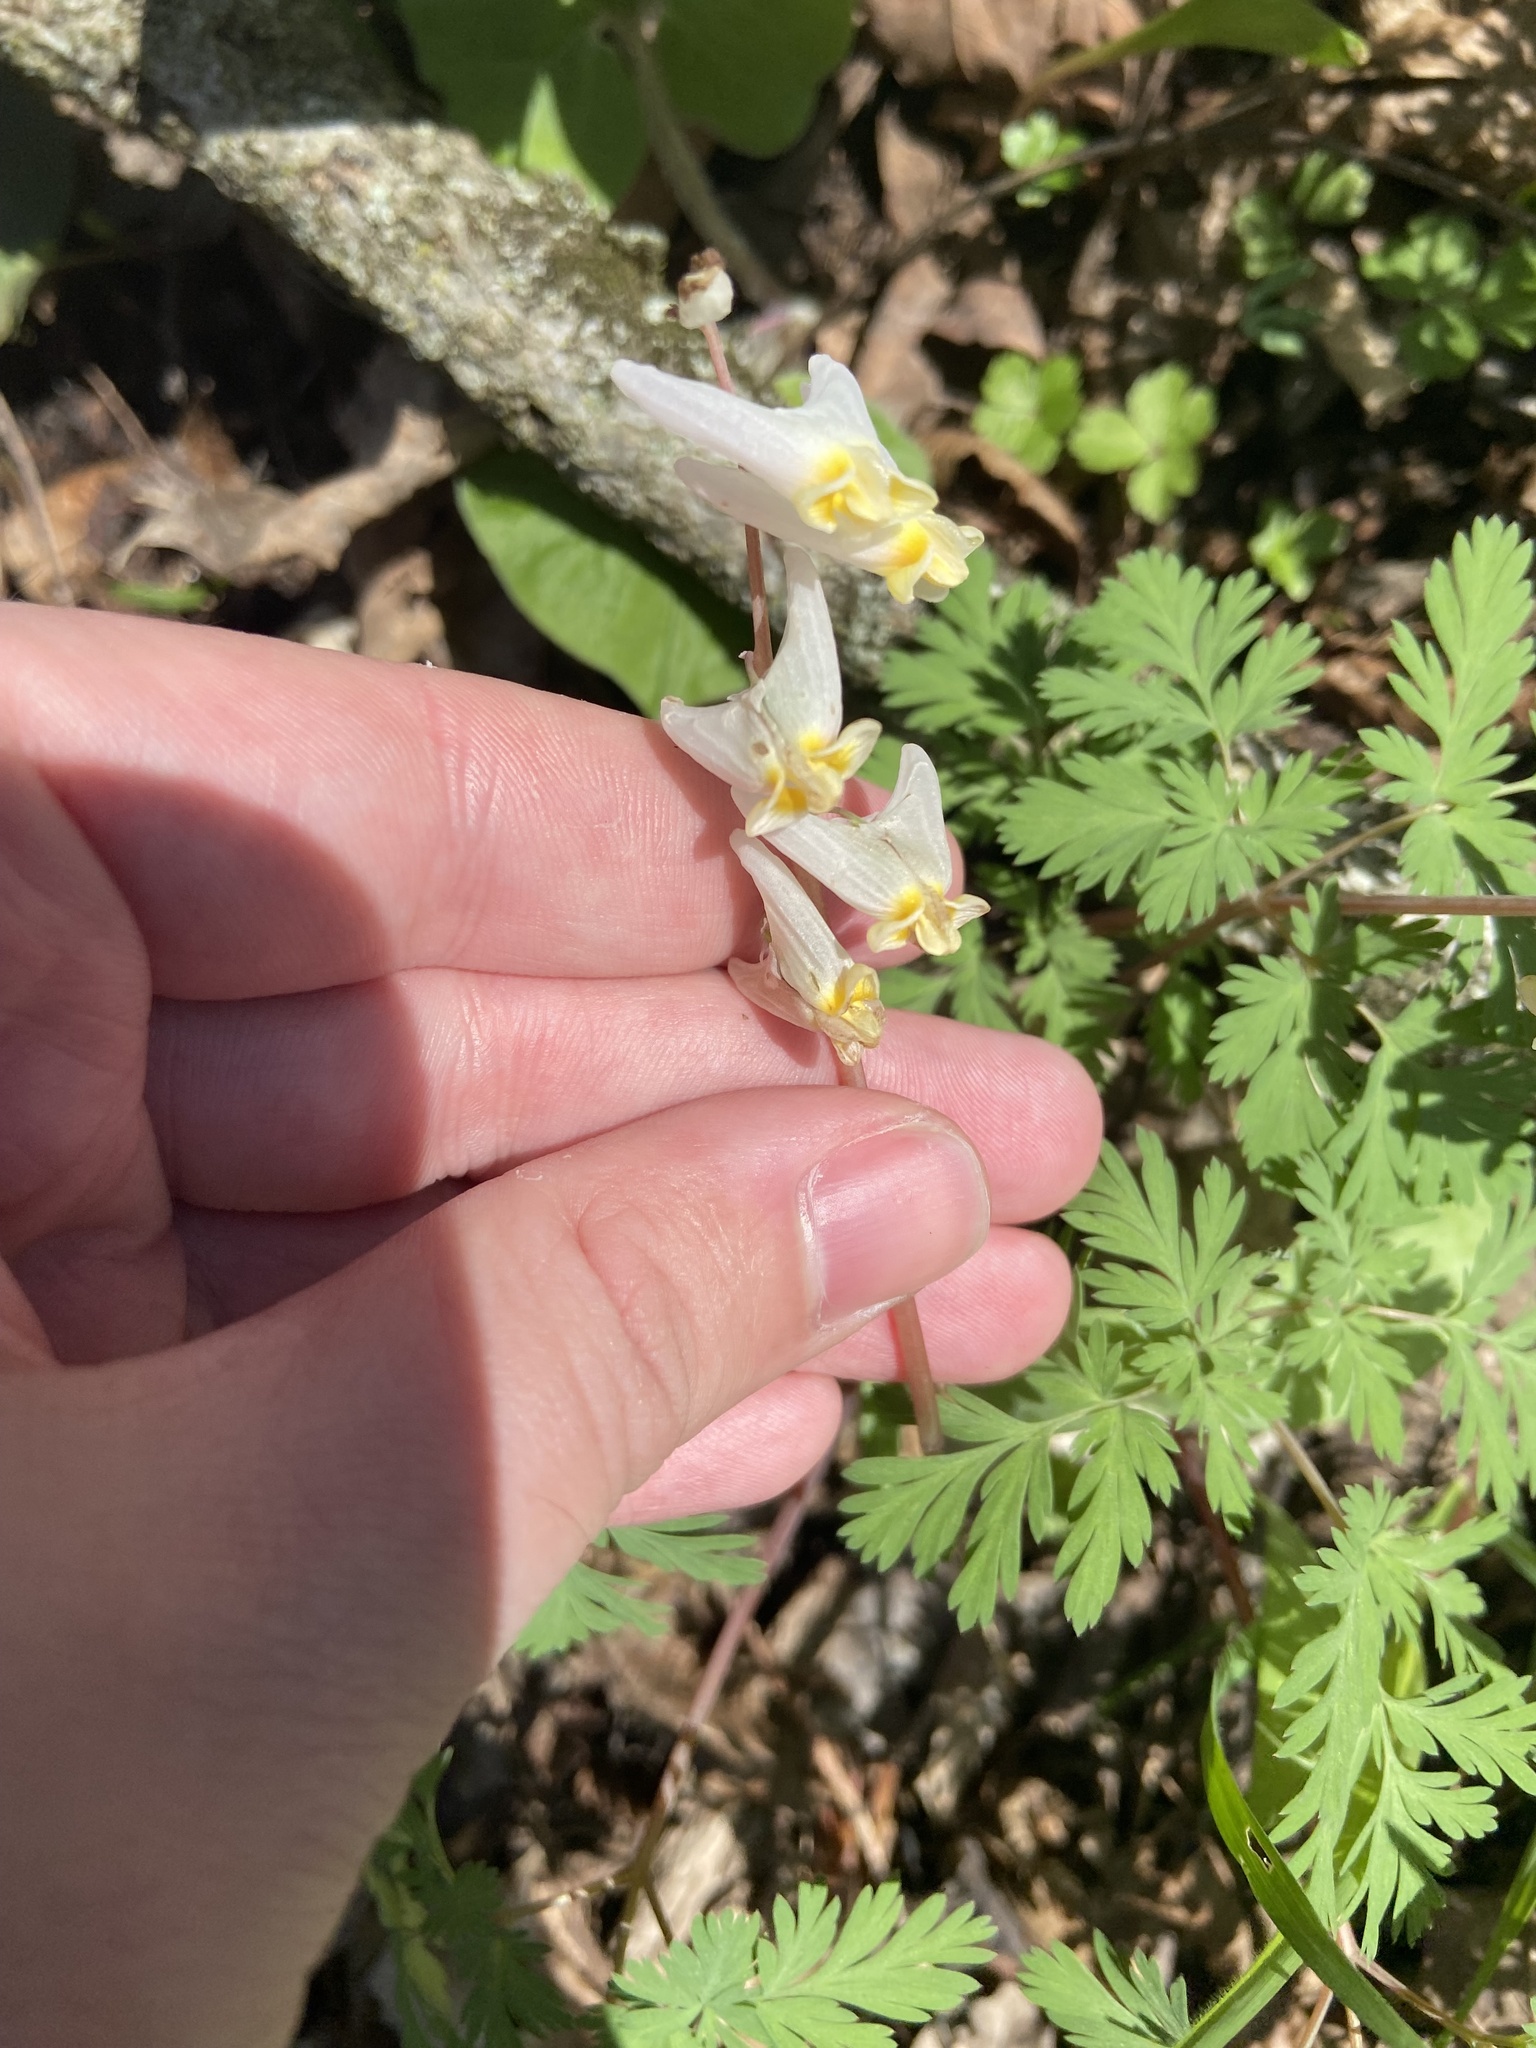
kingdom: Plantae
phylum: Tracheophyta
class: Magnoliopsida
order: Ranunculales
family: Papaveraceae
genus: Dicentra
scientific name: Dicentra cucullaria
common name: Dutchman's breeches
